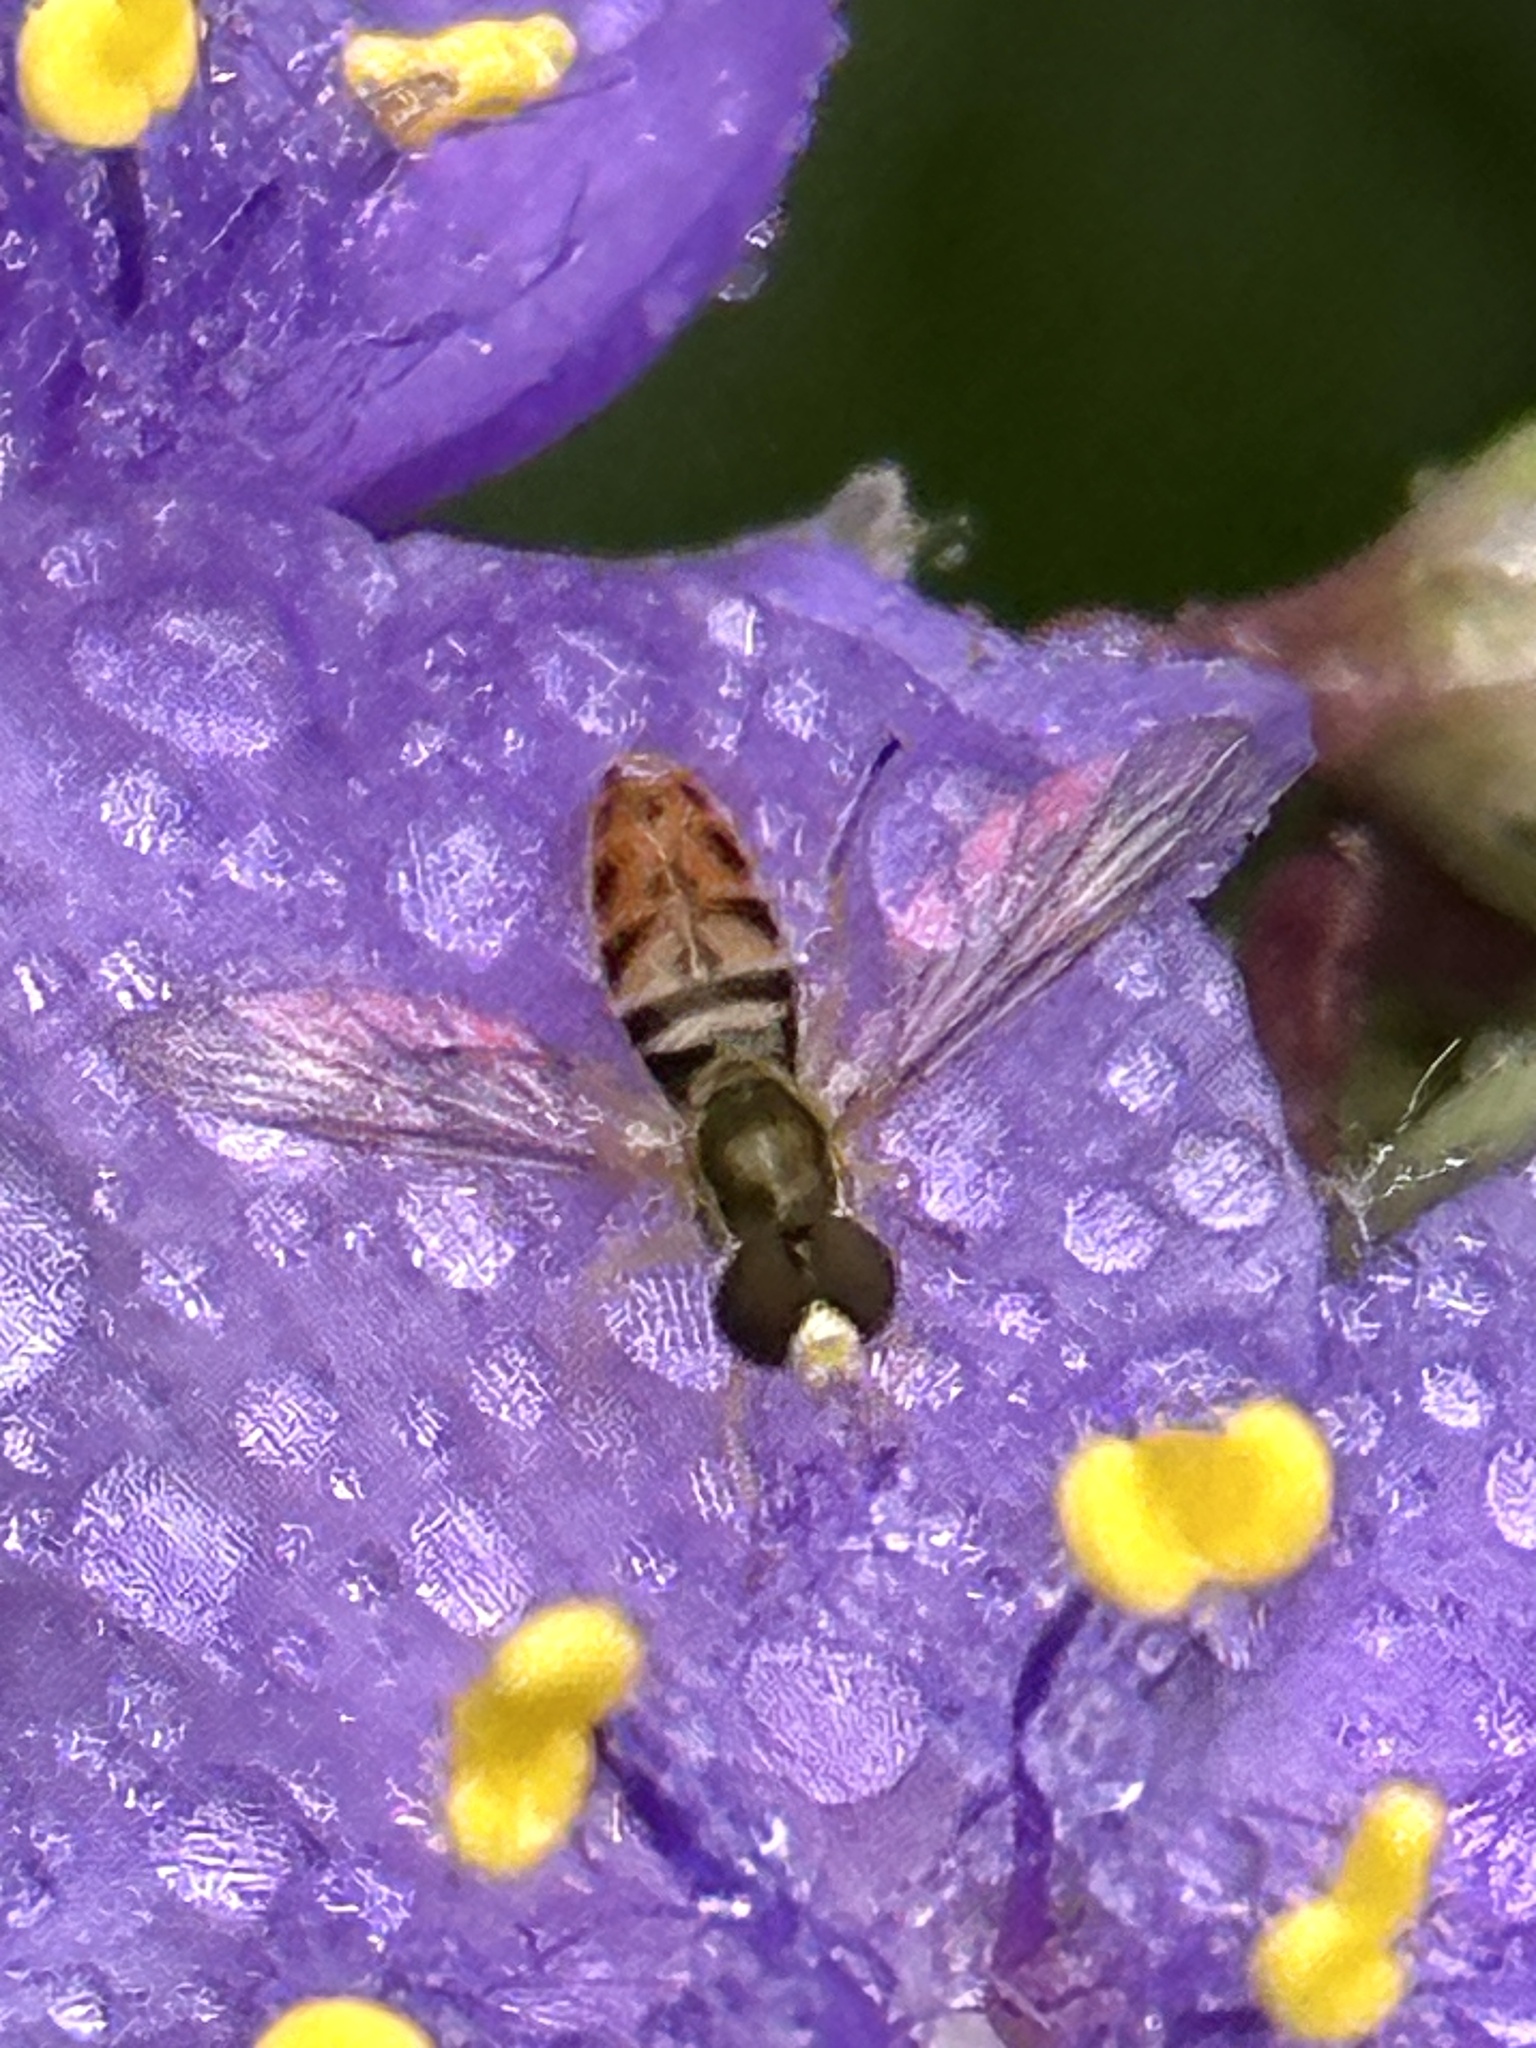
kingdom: Animalia
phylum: Arthropoda
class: Insecta
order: Diptera
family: Syrphidae
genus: Toxomerus
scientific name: Toxomerus marginatus
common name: Syrphid fly
